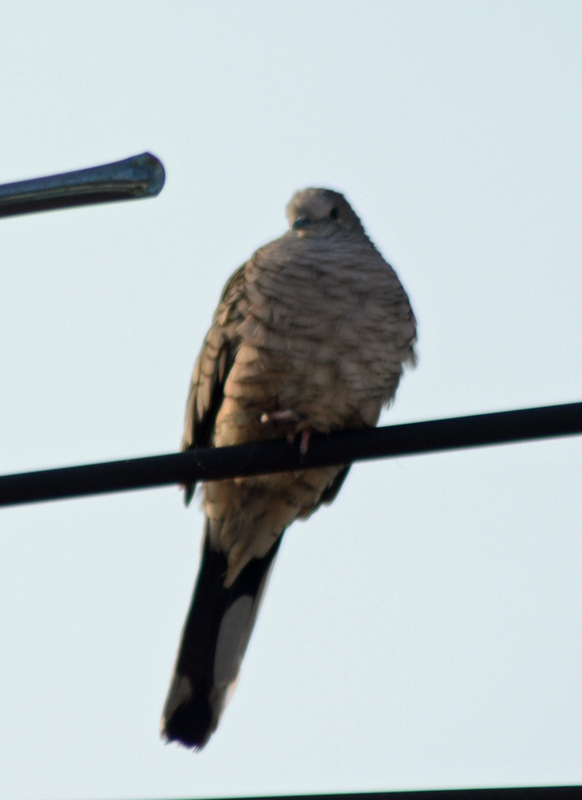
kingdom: Animalia
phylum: Chordata
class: Aves
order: Columbiformes
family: Columbidae
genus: Columbina
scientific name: Columbina inca
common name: Inca dove
